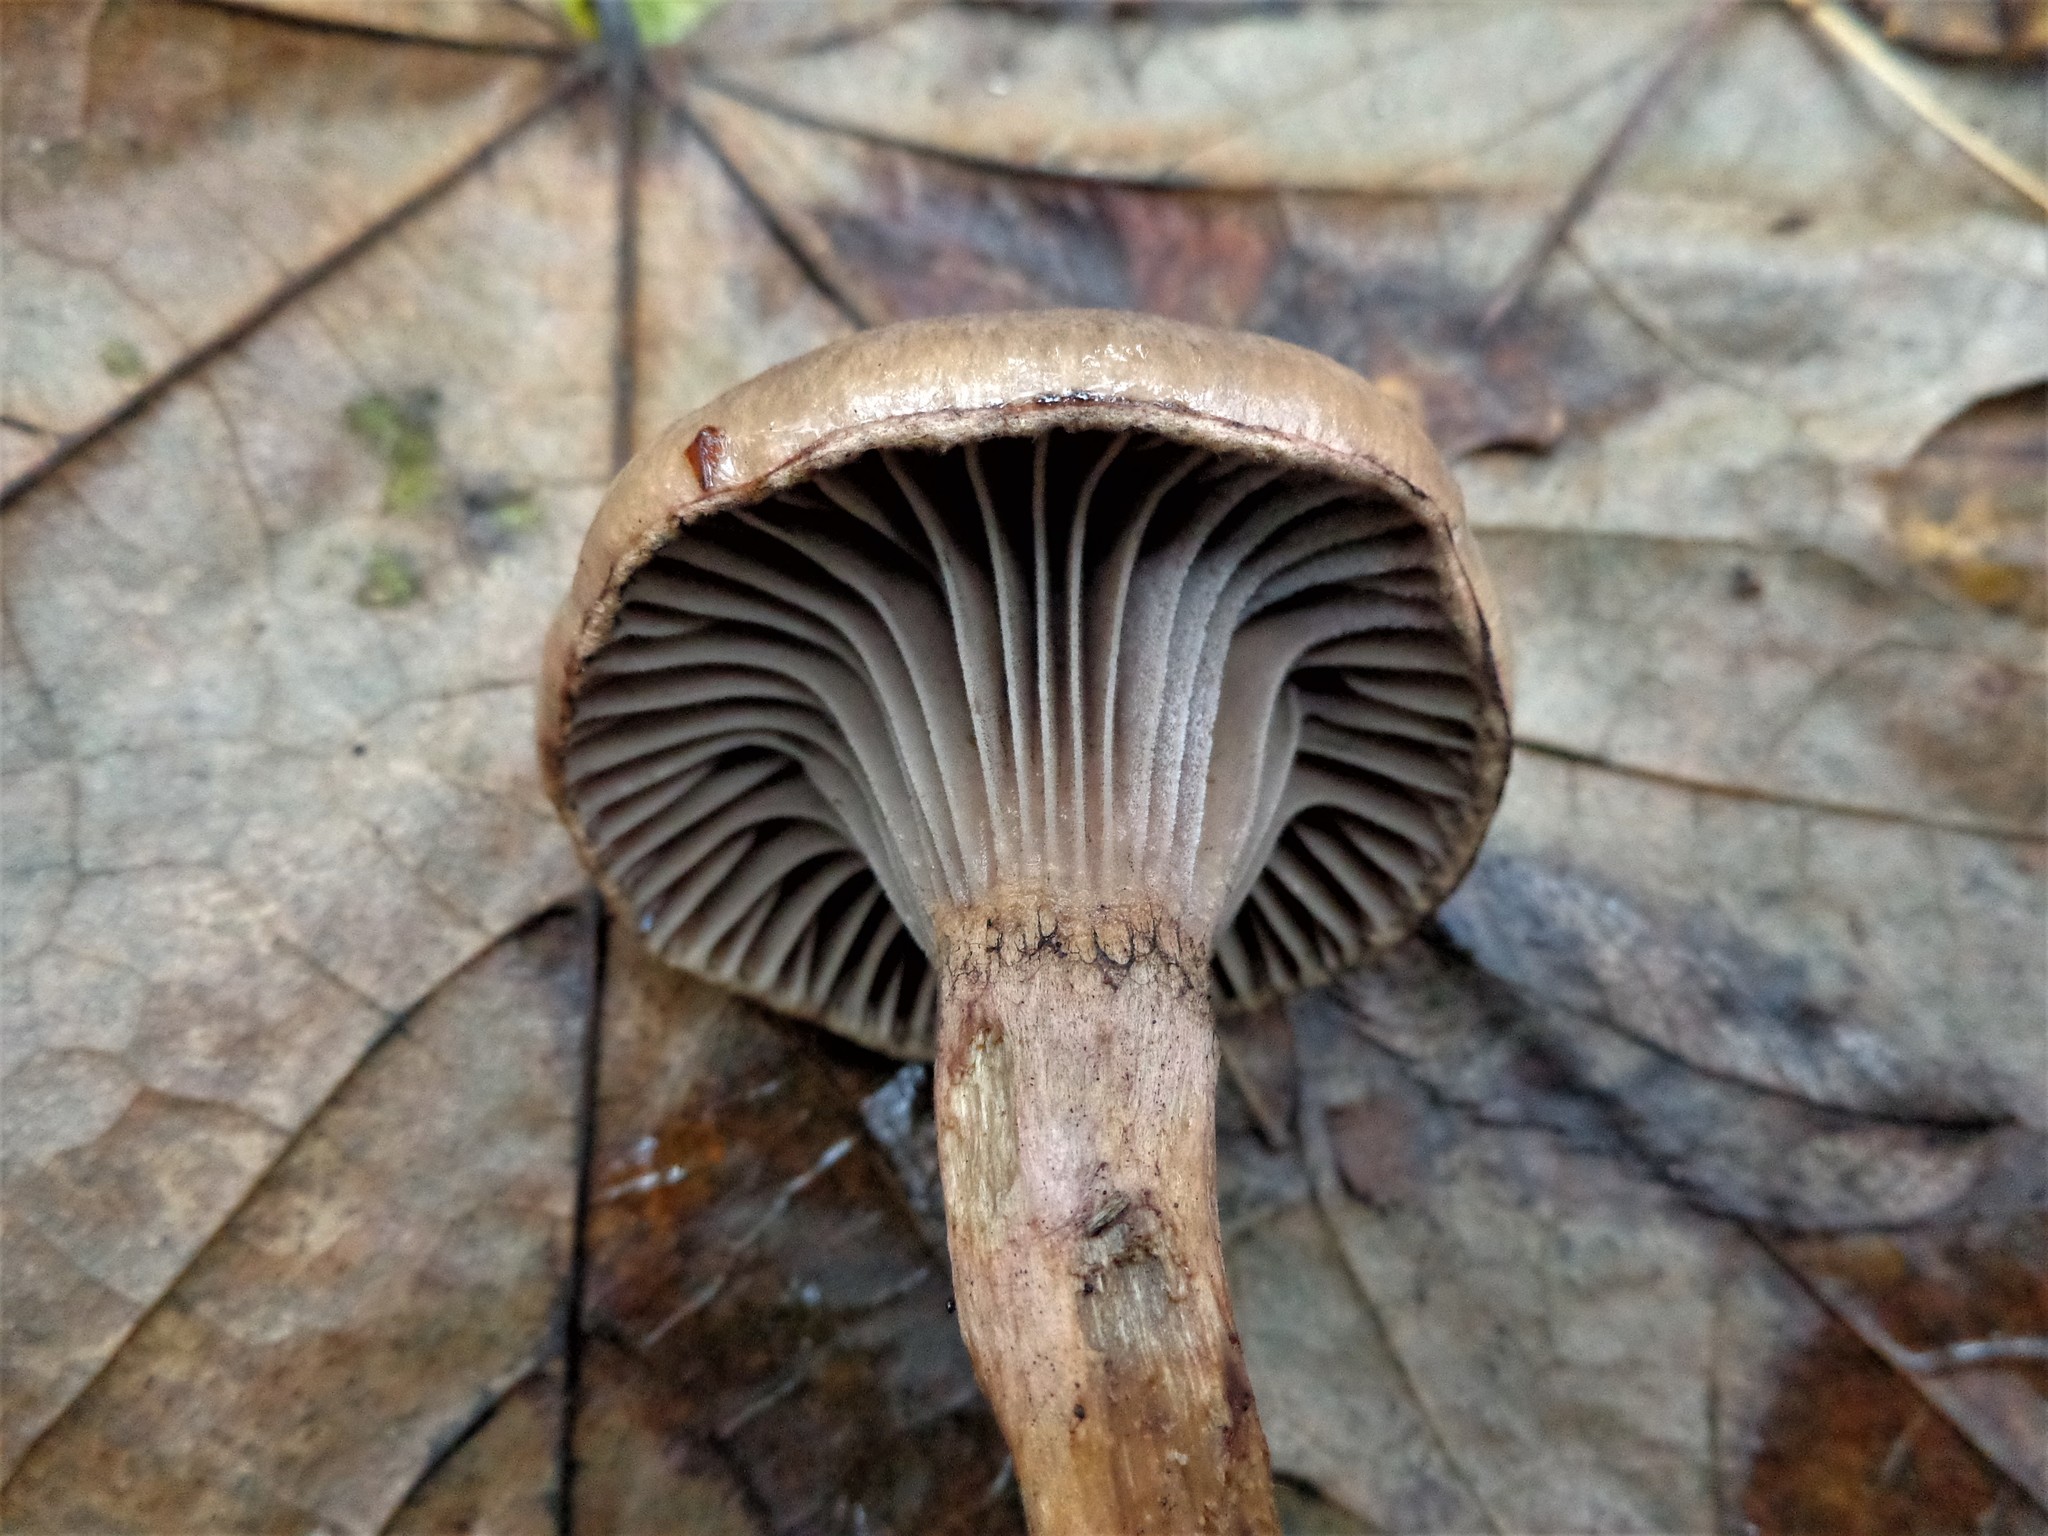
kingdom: Fungi
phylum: Basidiomycota
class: Agaricomycetes
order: Boletales
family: Gomphidiaceae
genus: Chroogomphus
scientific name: Chroogomphus rutilus
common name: Copper spike
